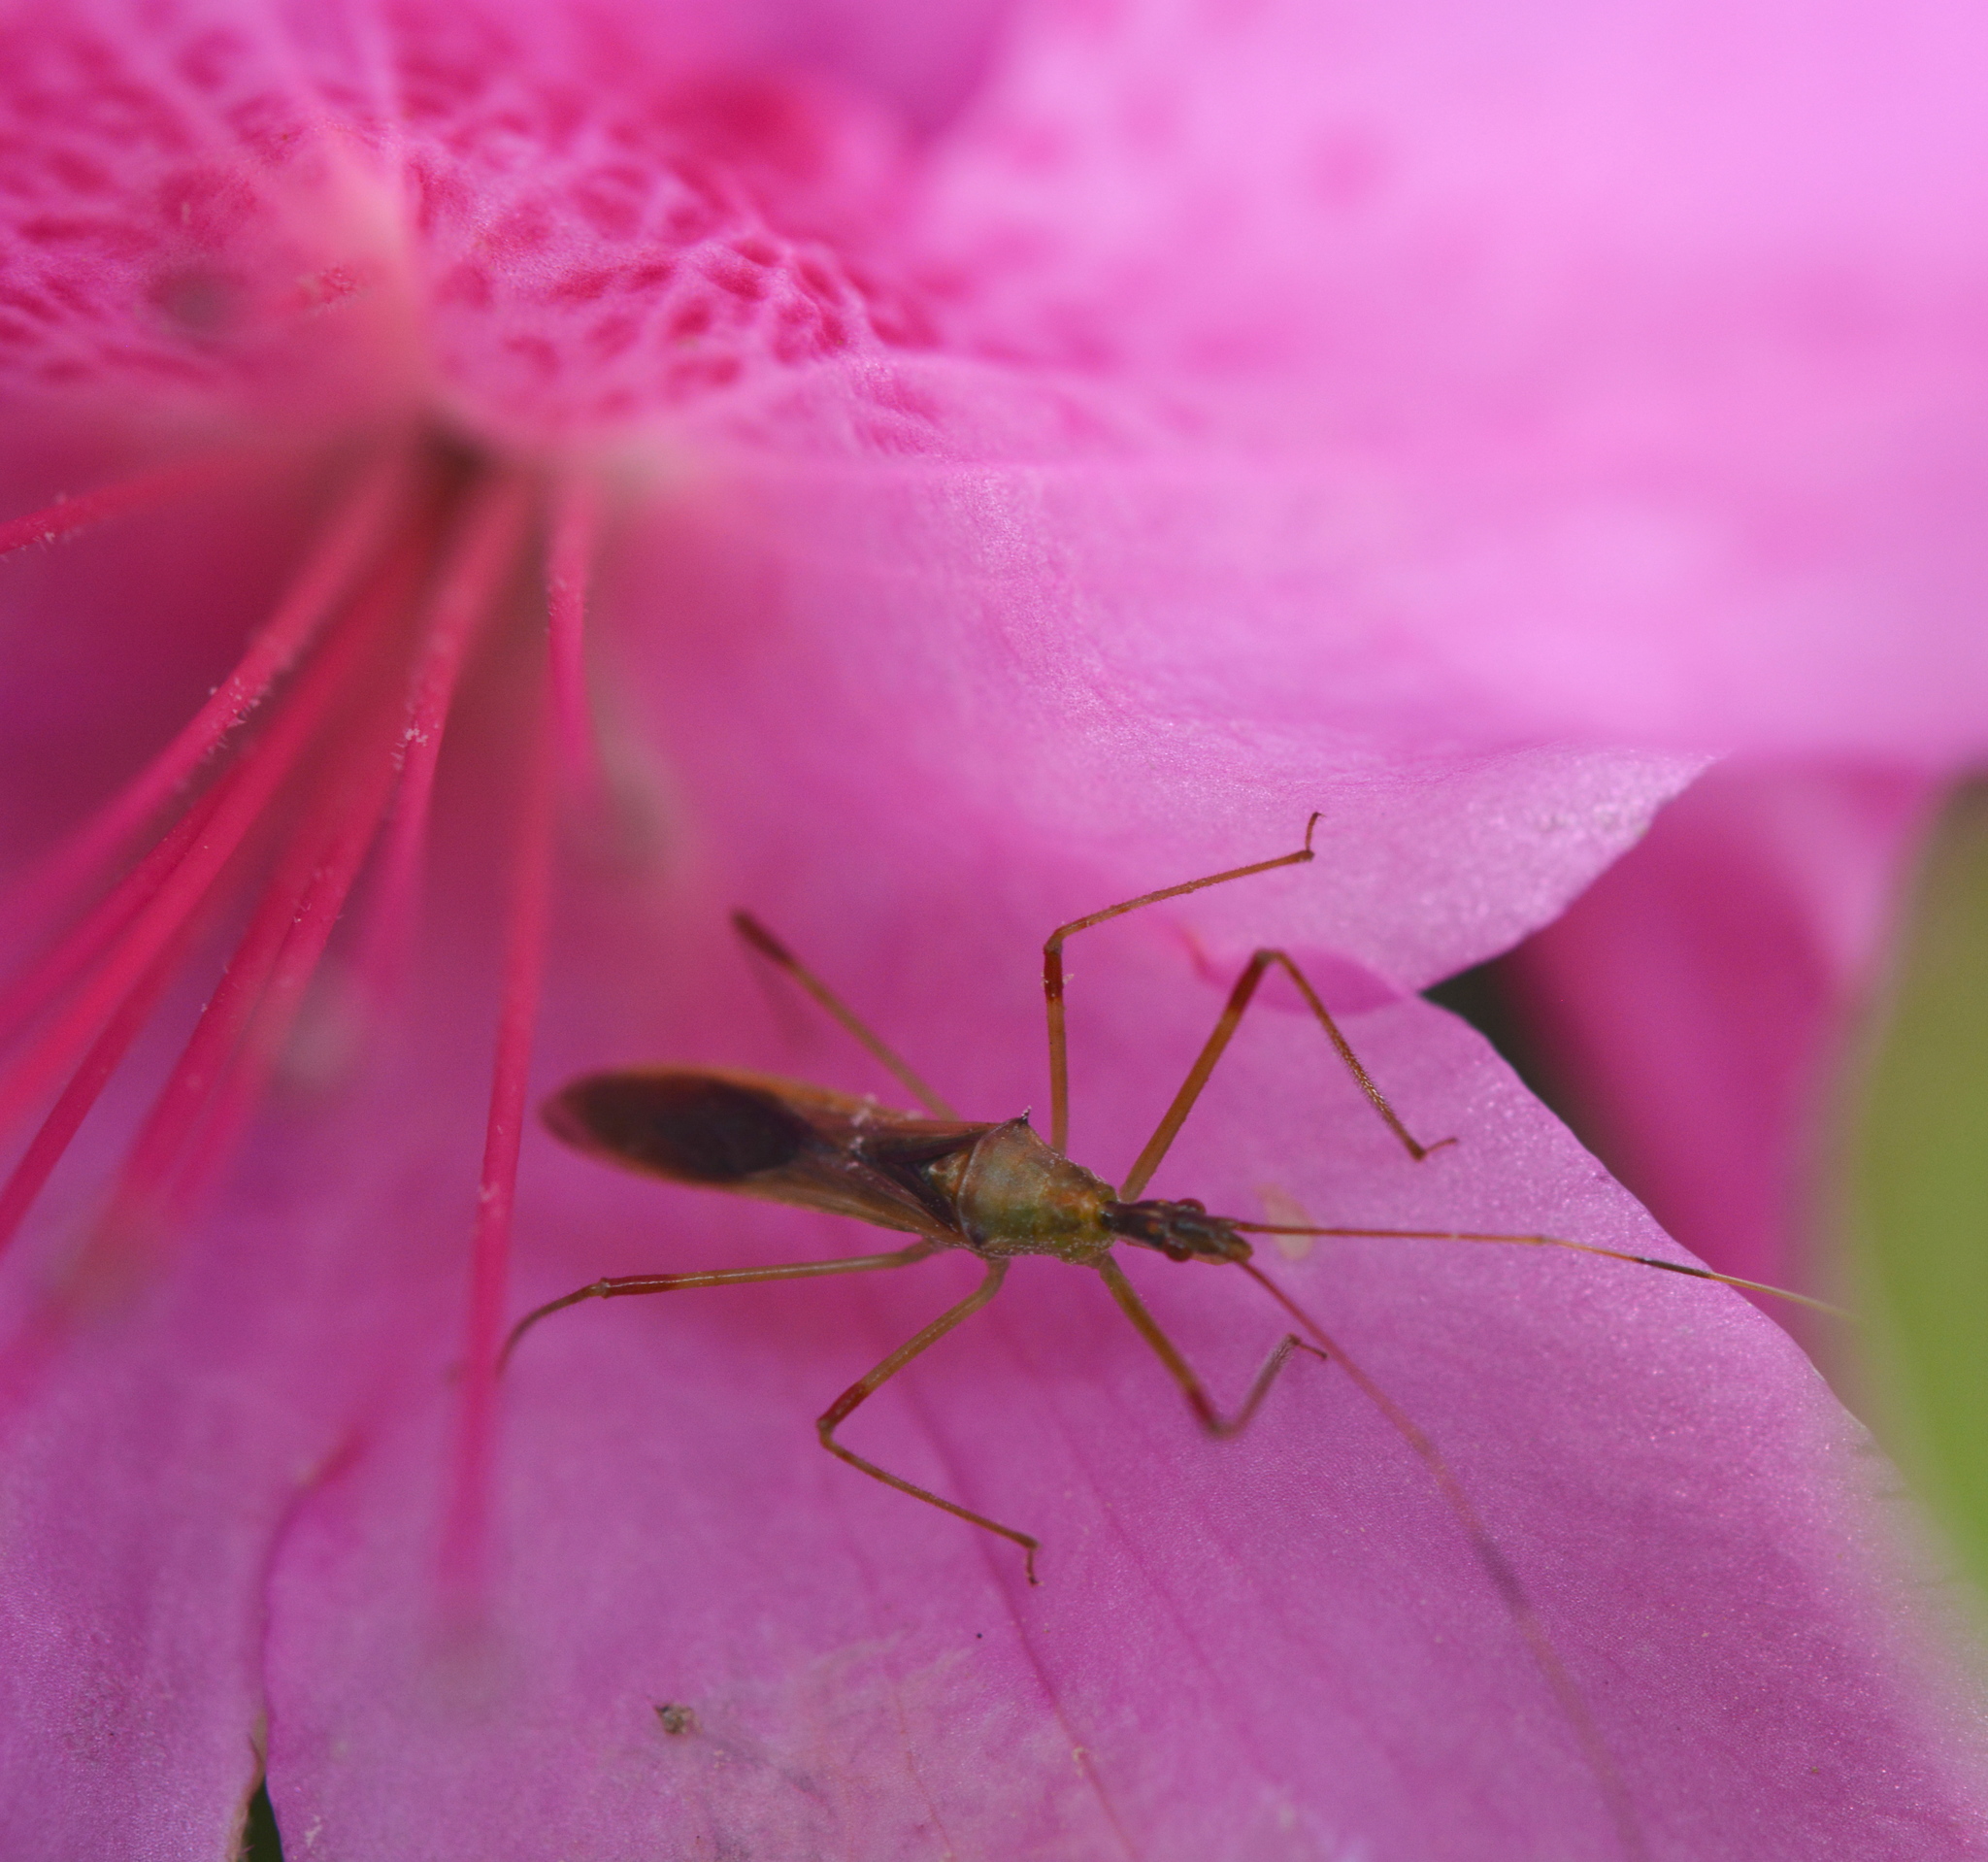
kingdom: Animalia
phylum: Arthropoda
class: Insecta
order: Hemiptera
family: Reduviidae
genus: Zelus
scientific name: Zelus luridus
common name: Pale green assassin bug
